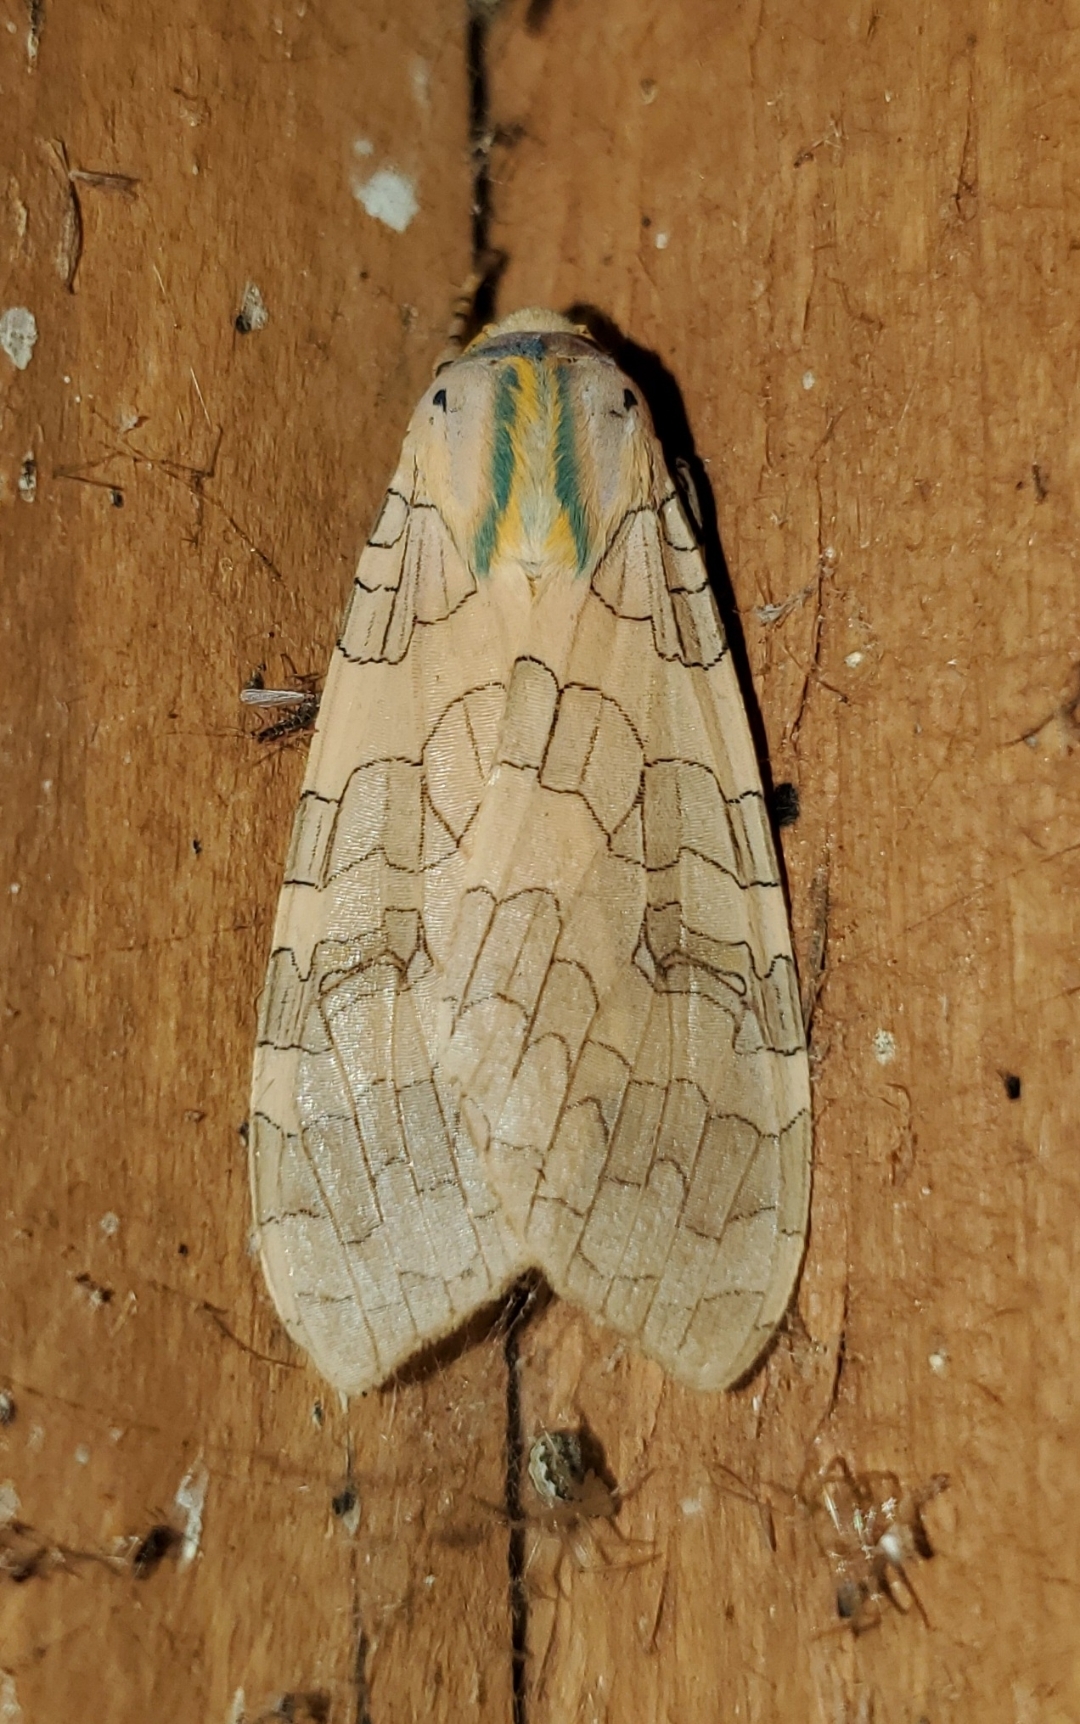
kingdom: Animalia
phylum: Arthropoda
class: Insecta
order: Lepidoptera
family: Erebidae
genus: Halysidota
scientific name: Halysidota
